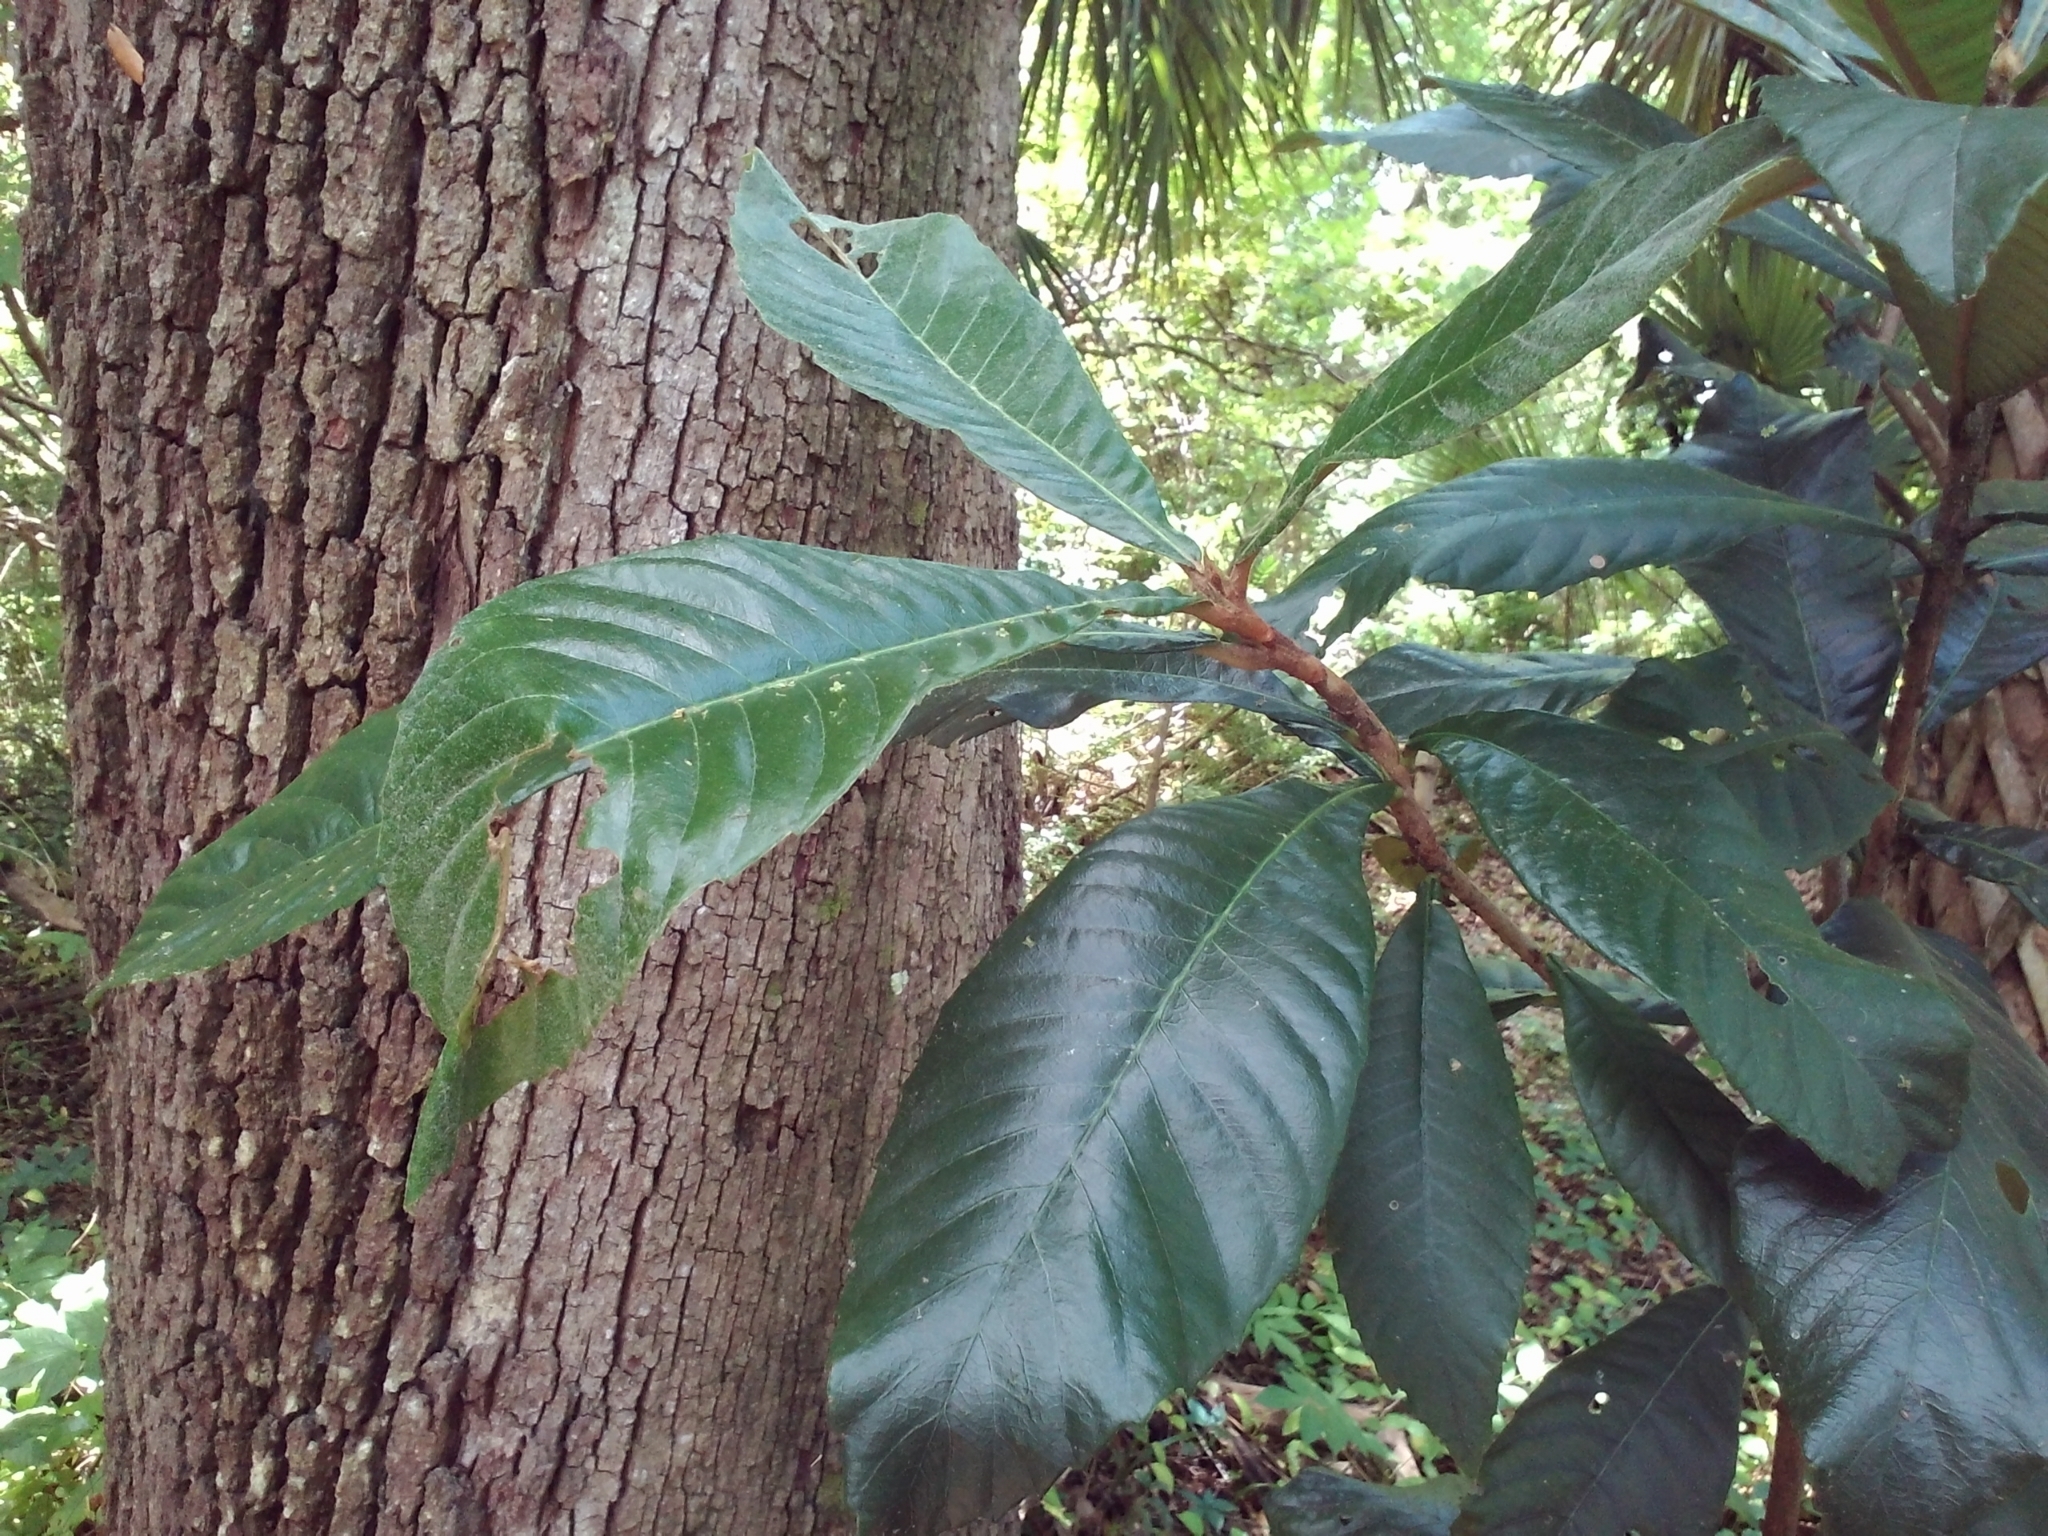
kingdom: Plantae
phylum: Tracheophyta
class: Magnoliopsida
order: Rosales
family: Rosaceae
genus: Rhaphiolepis
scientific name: Rhaphiolepis bibas
